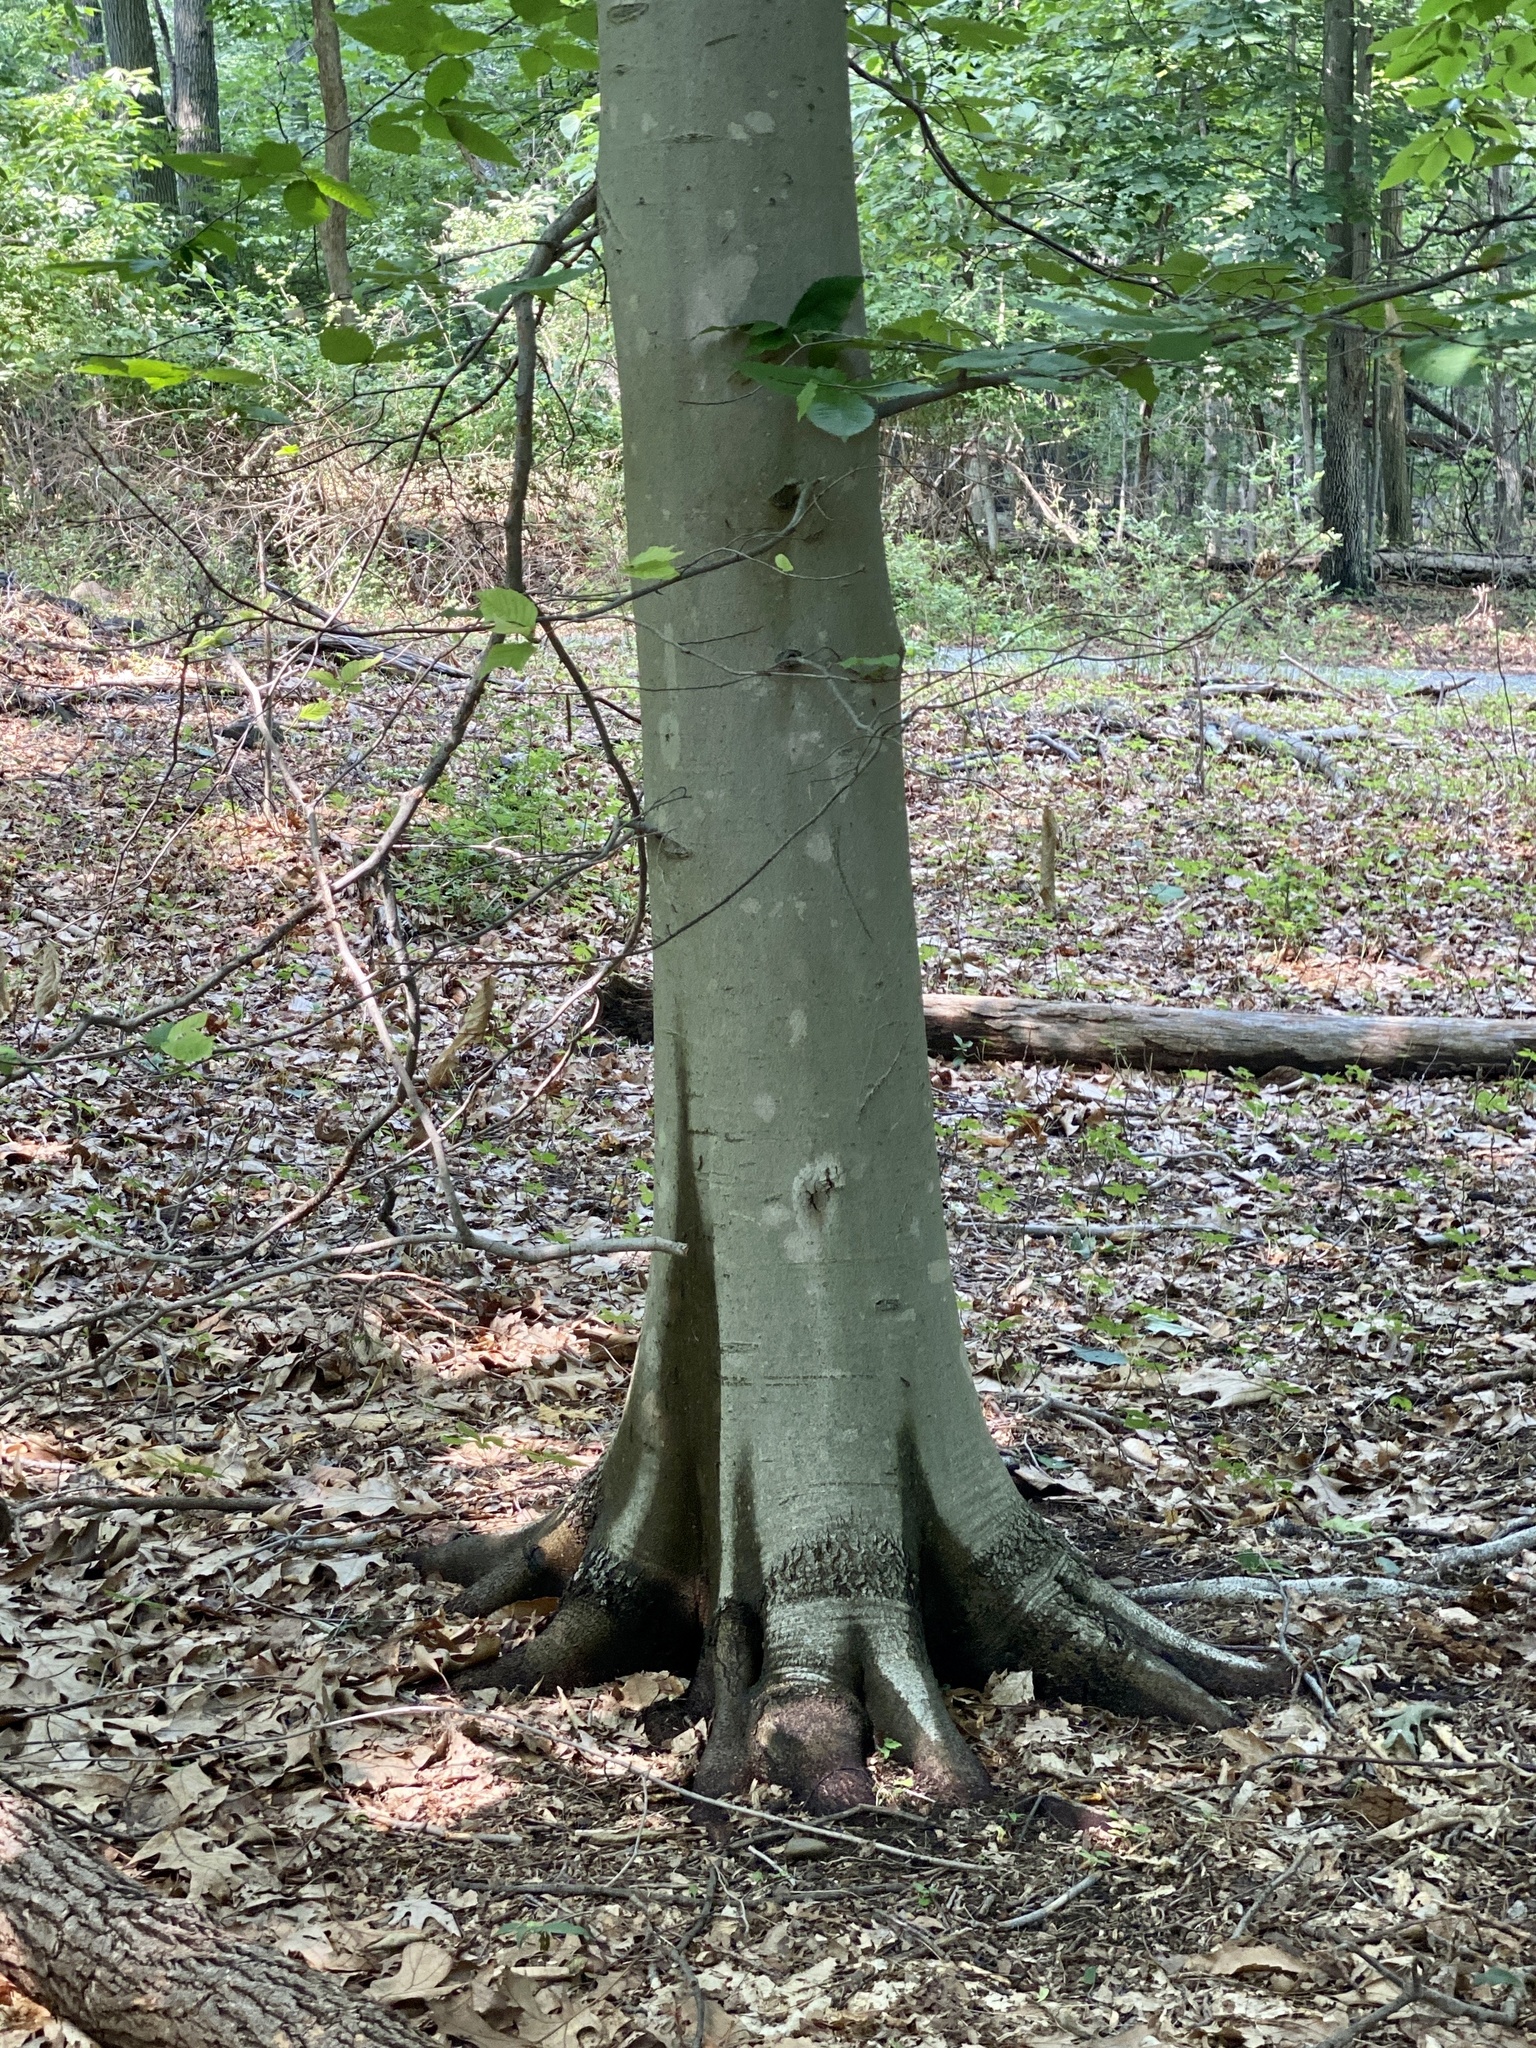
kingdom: Plantae
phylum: Tracheophyta
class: Magnoliopsida
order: Fagales
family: Fagaceae
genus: Fagus
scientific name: Fagus grandifolia
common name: American beech
